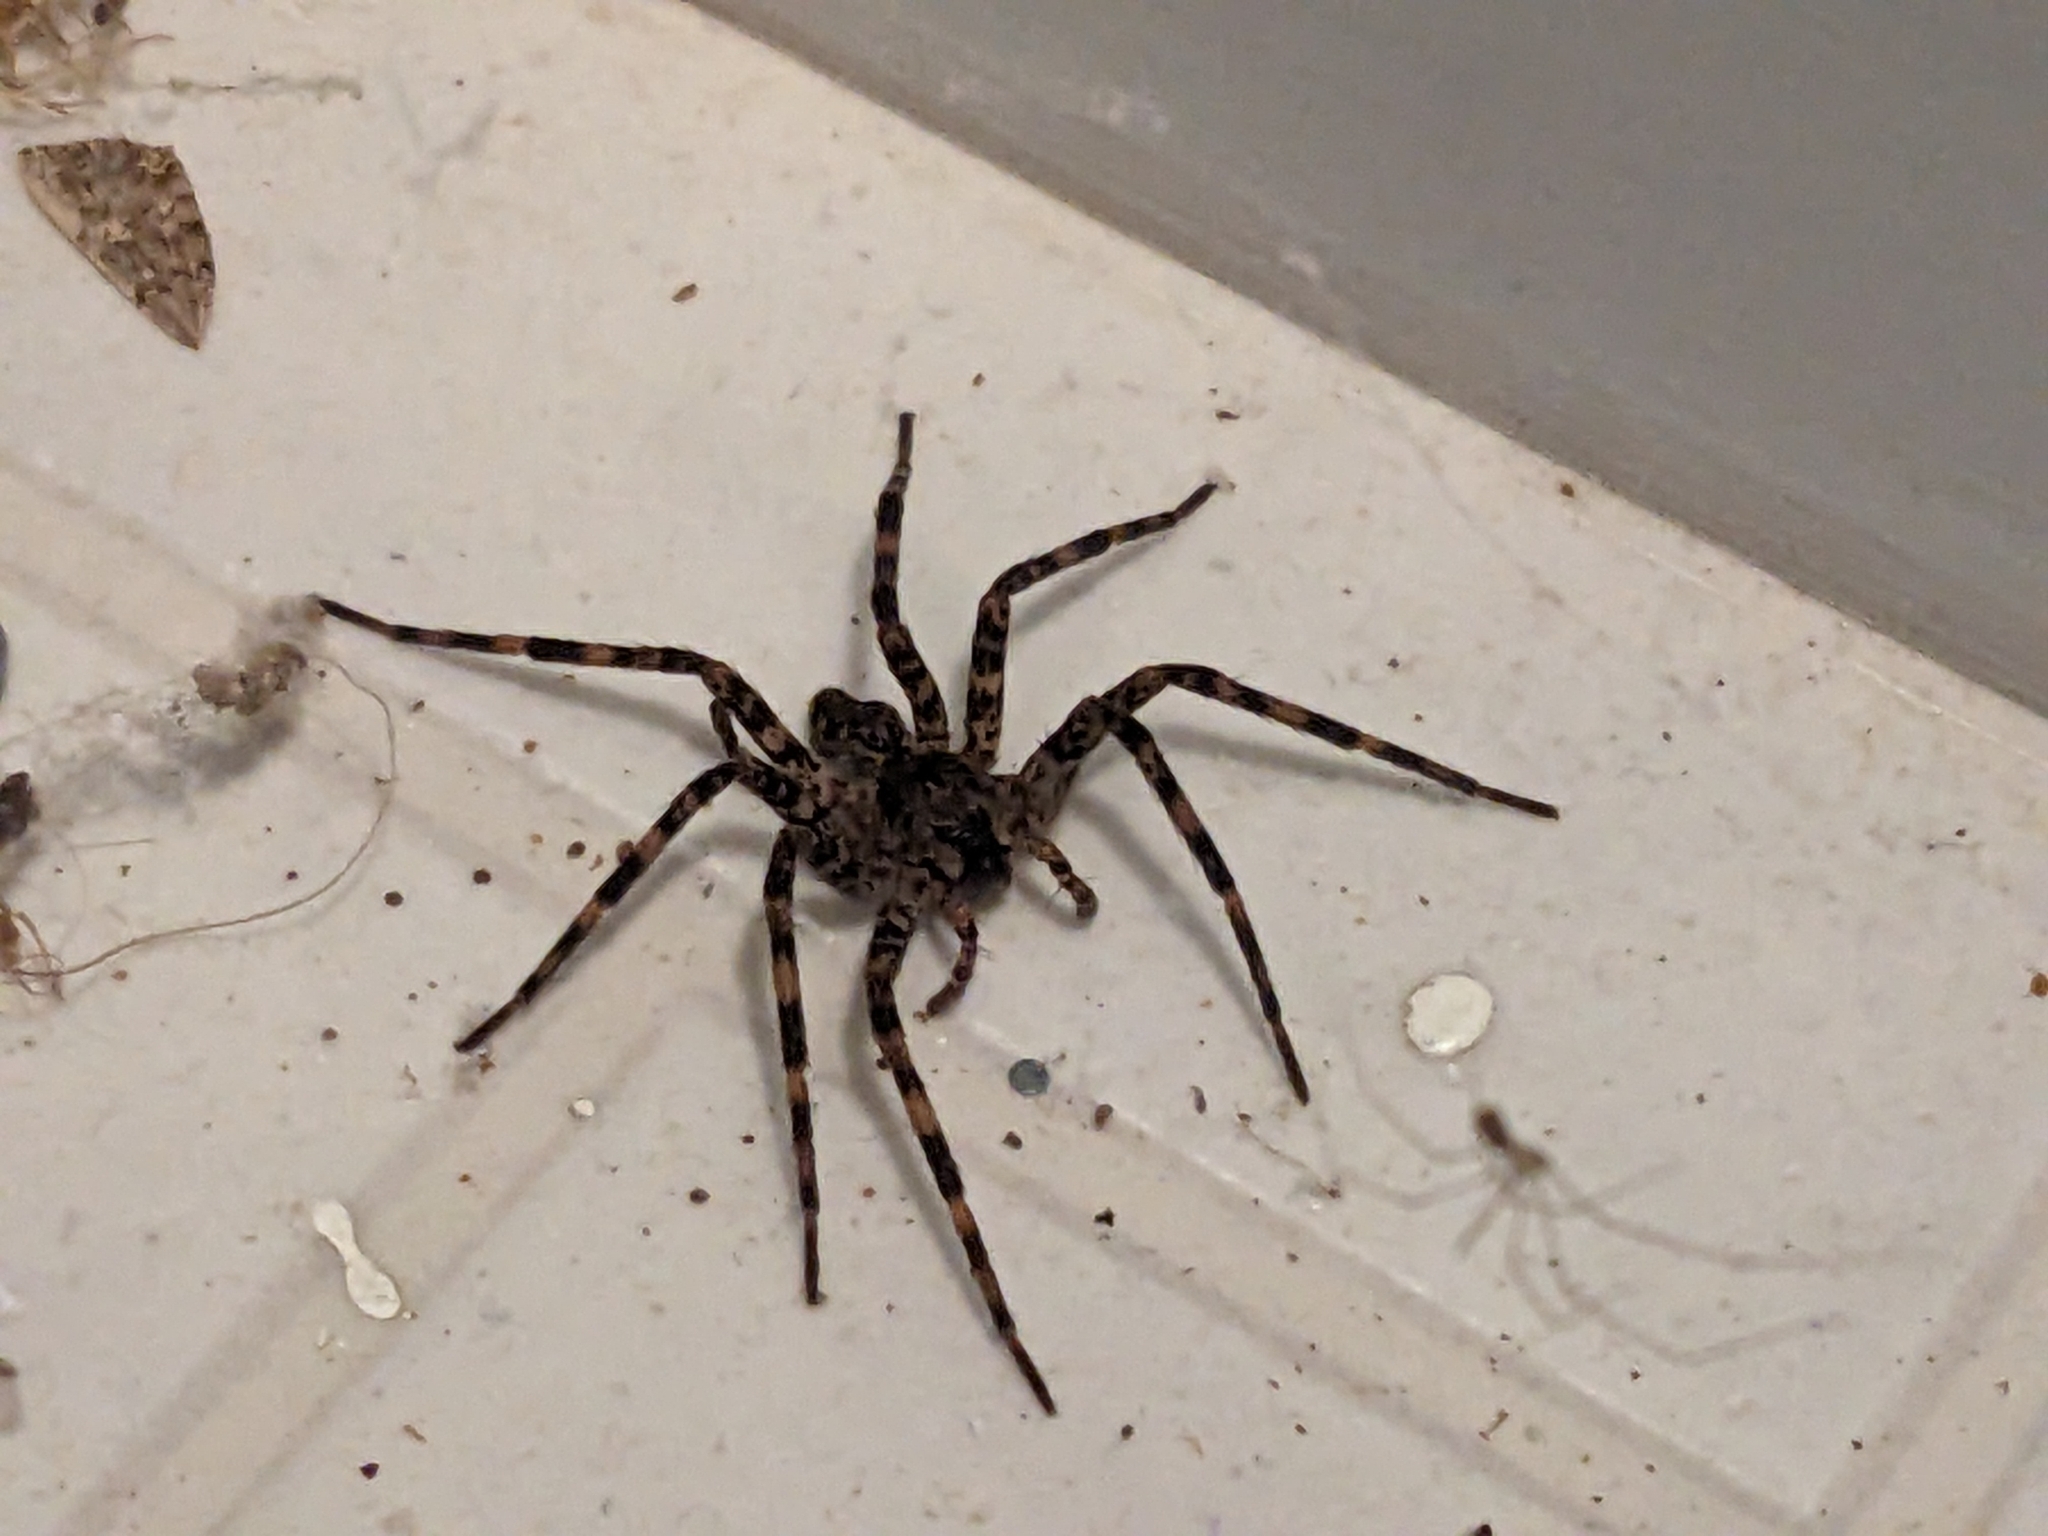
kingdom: Animalia
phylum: Arthropoda
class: Arachnida
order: Araneae
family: Pisauridae
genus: Dolomedes
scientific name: Dolomedes tenebrosus
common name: Dark fishing spider
